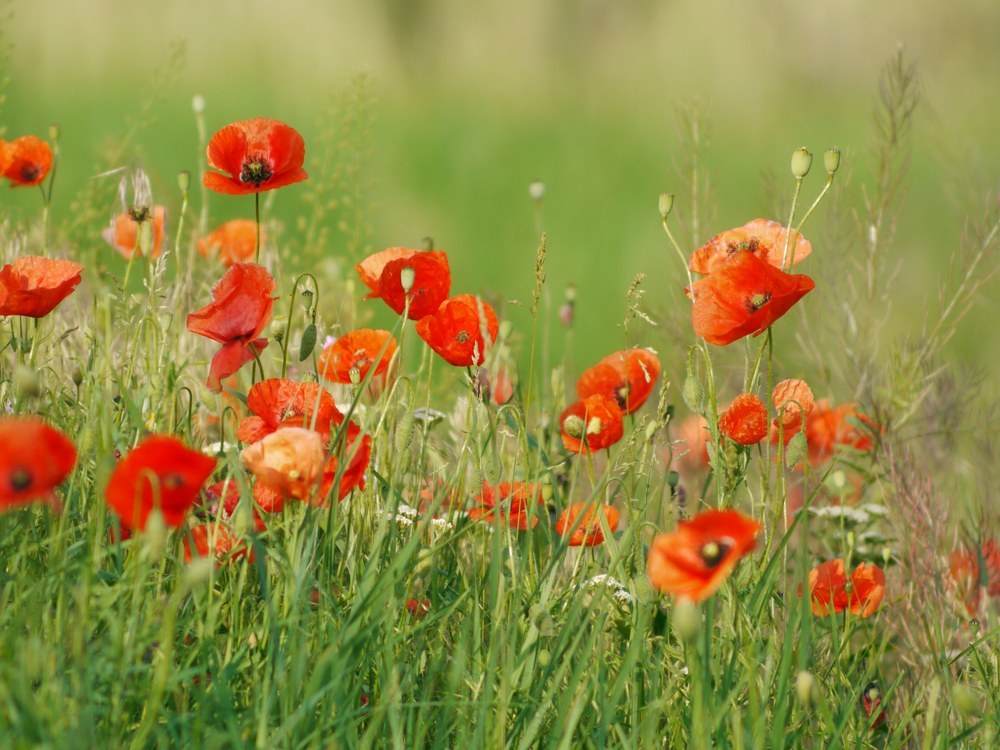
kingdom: Plantae
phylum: Tracheophyta
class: Magnoliopsida
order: Ranunculales
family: Papaveraceae
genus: Papaver
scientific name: Papaver rhoeas
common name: Corn poppy
